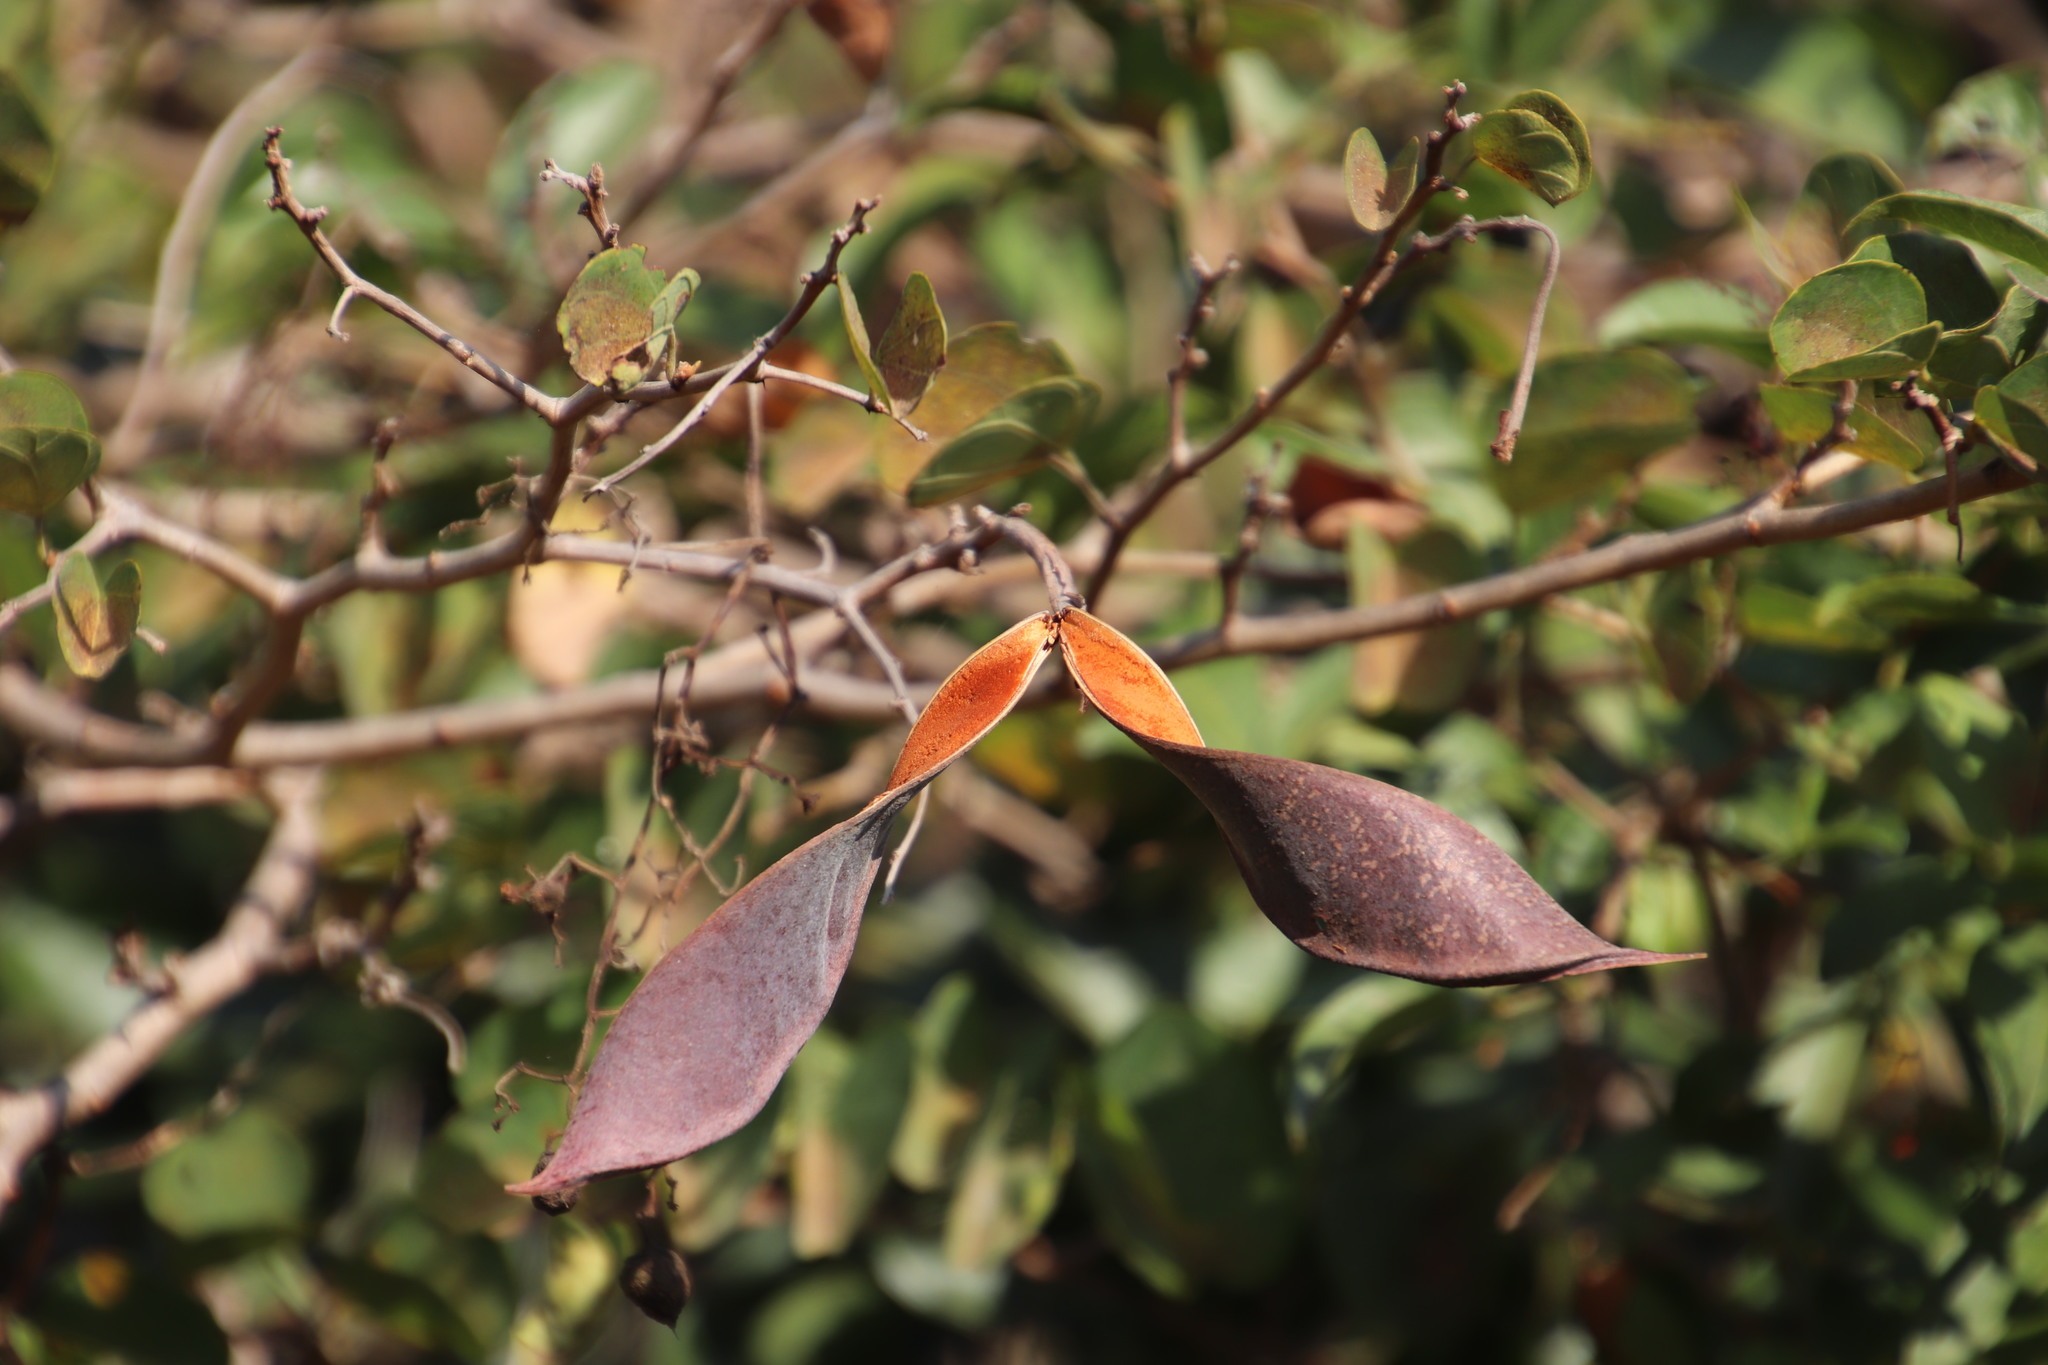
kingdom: Plantae
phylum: Tracheophyta
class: Magnoliopsida
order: Fabales
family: Fabaceae
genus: Bauhinia
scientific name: Bauhinia galpinii
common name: African plume
